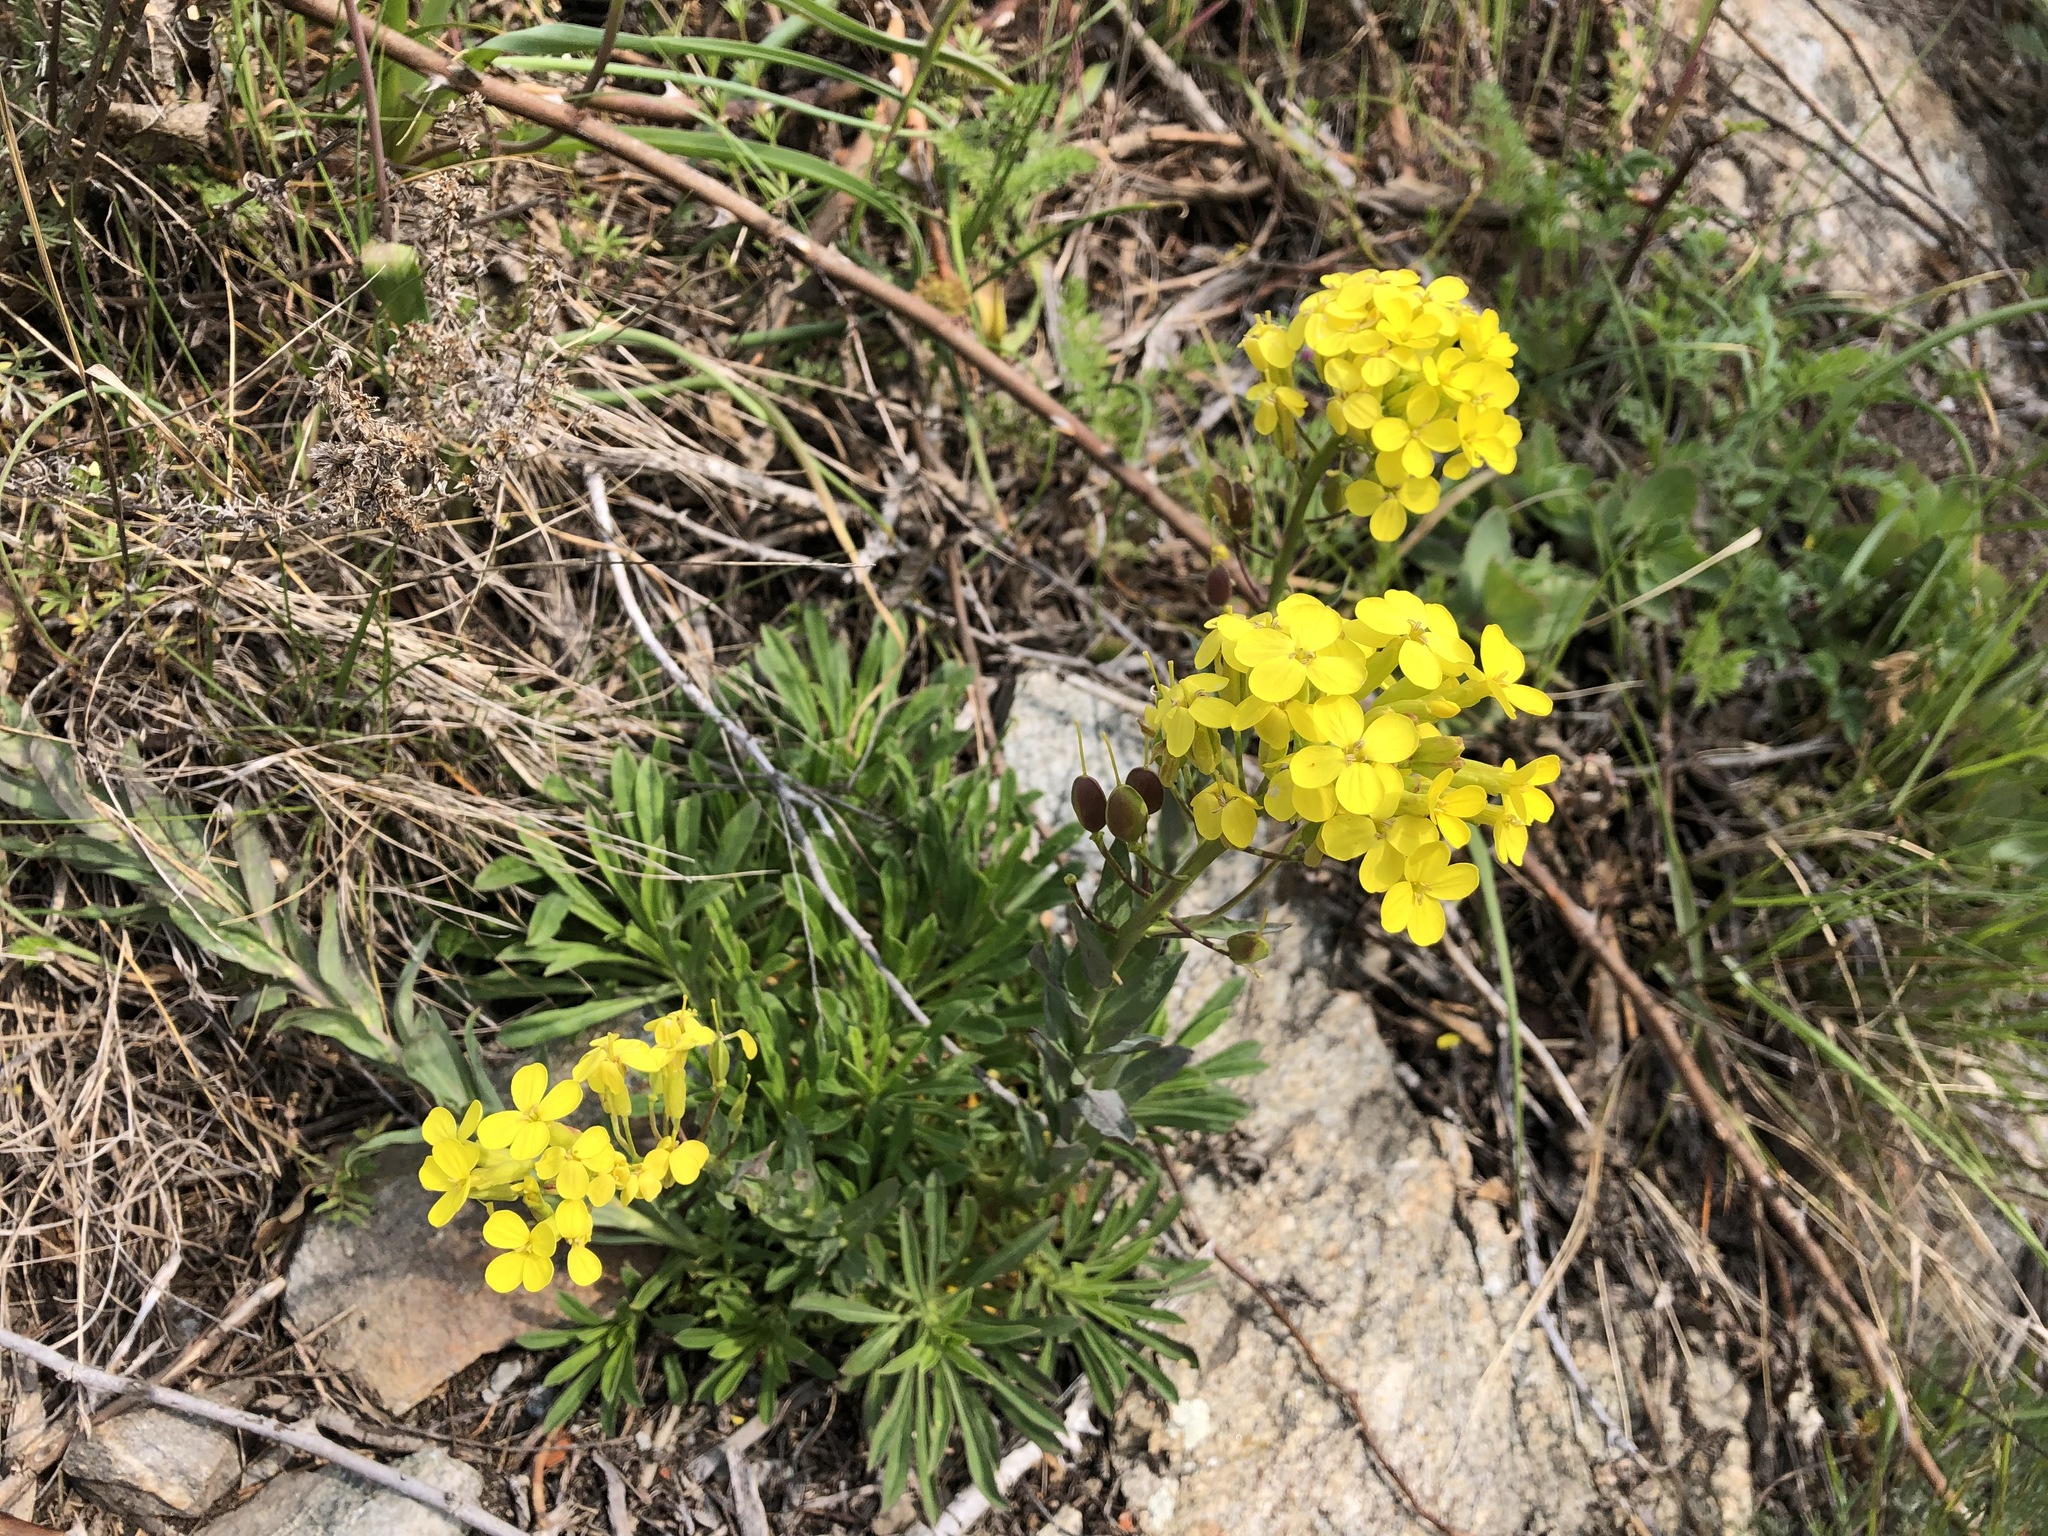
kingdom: Plantae
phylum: Tracheophyta
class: Magnoliopsida
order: Brassicales
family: Brassicaceae
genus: Alyssoides
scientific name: Alyssoides utriculata
